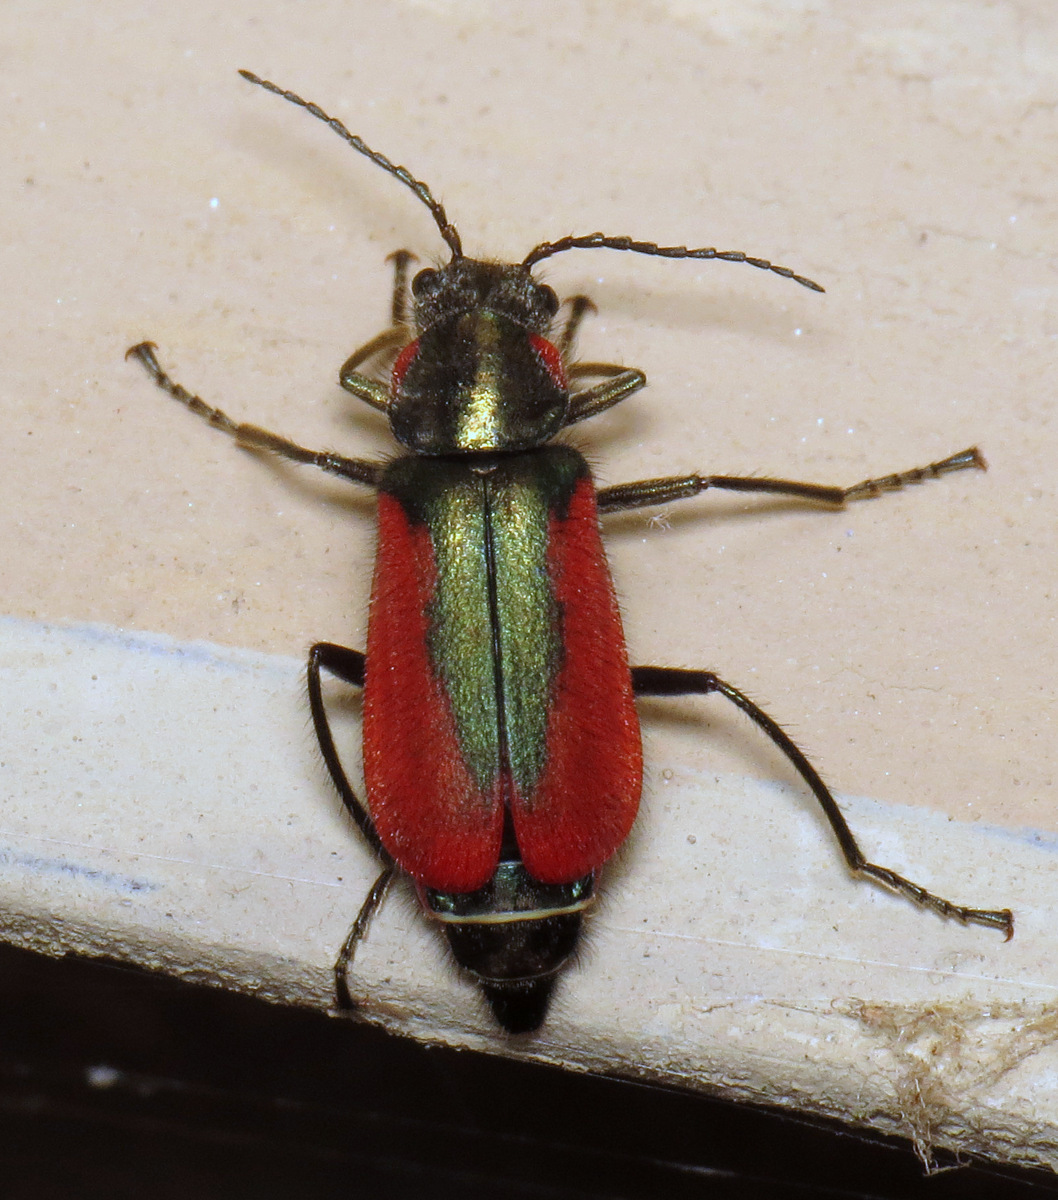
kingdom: Animalia
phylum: Arthropoda
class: Insecta
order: Coleoptera
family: Melyridae
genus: Malachius
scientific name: Malachius aeneus
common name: Scarlet malachite beetle
